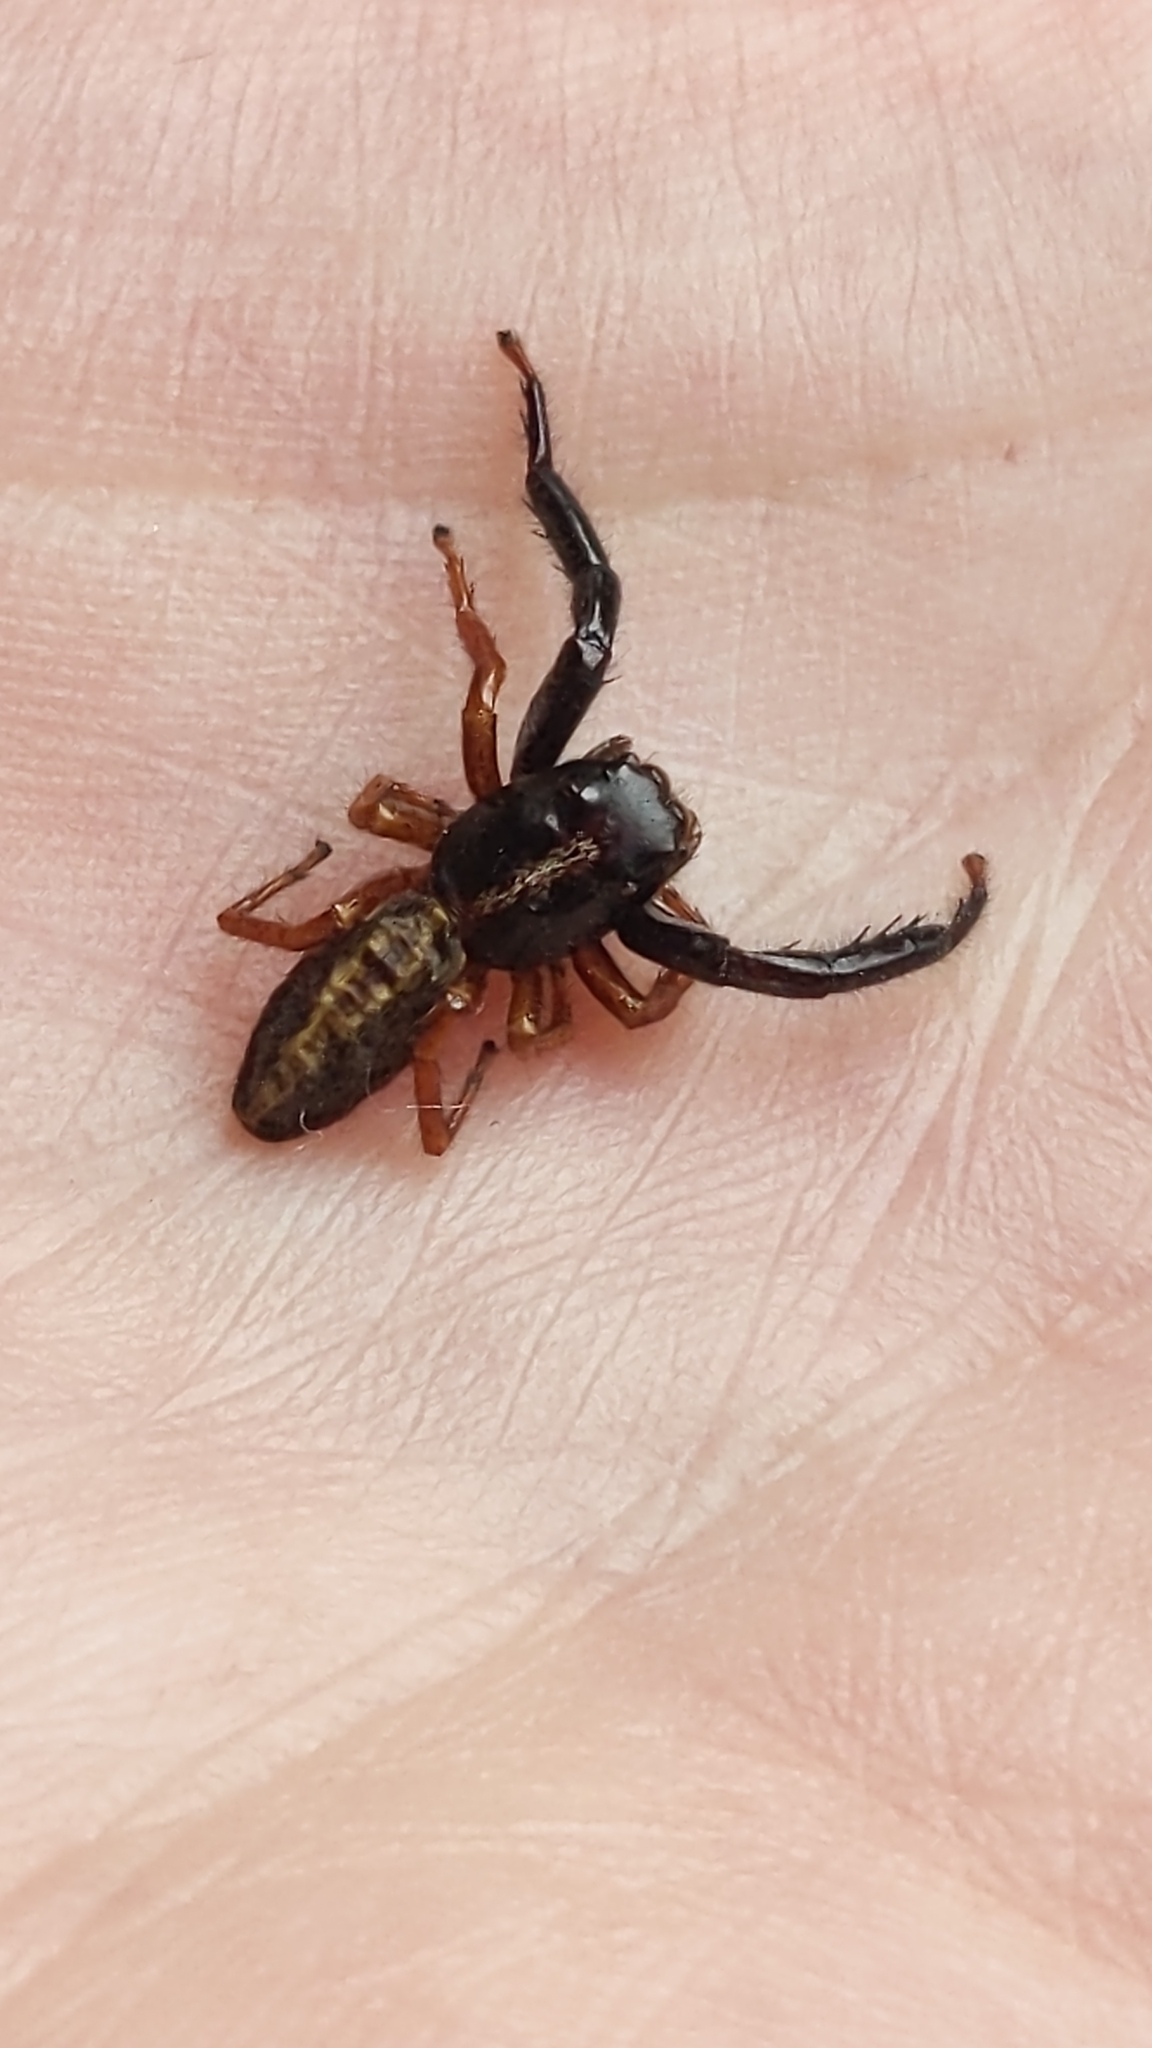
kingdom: Animalia
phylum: Arthropoda
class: Arachnida
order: Araneae
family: Salticidae
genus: Trite
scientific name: Trite planiceps
